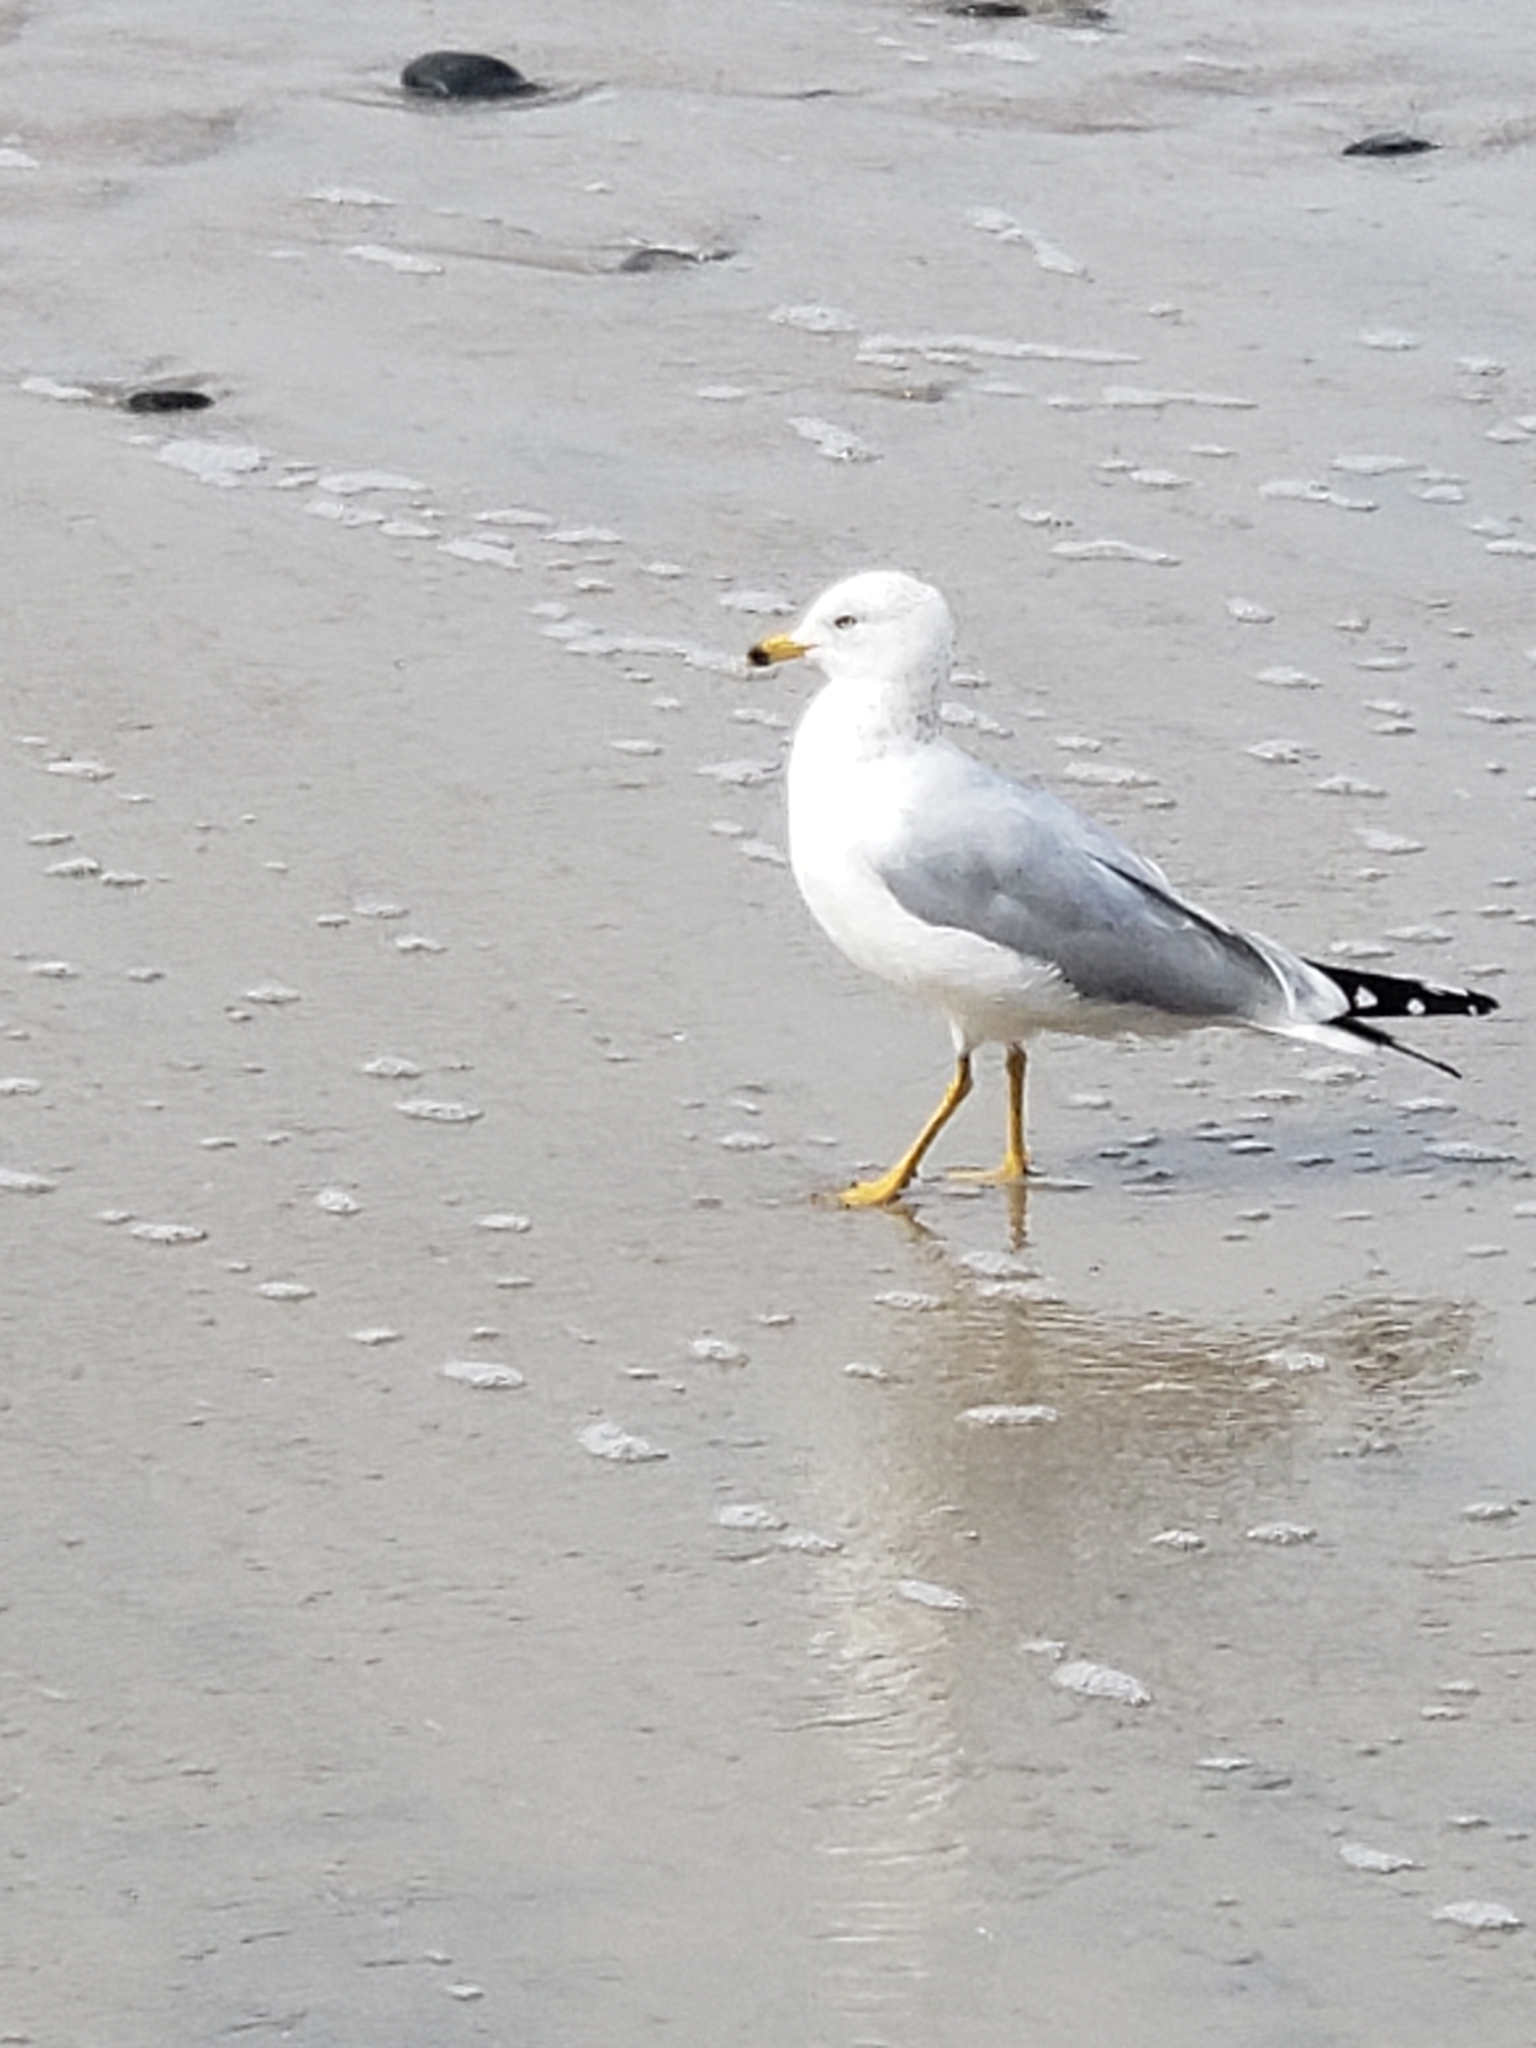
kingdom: Animalia
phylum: Chordata
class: Aves
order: Charadriiformes
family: Laridae
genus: Larus
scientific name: Larus delawarensis
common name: Ring-billed gull
